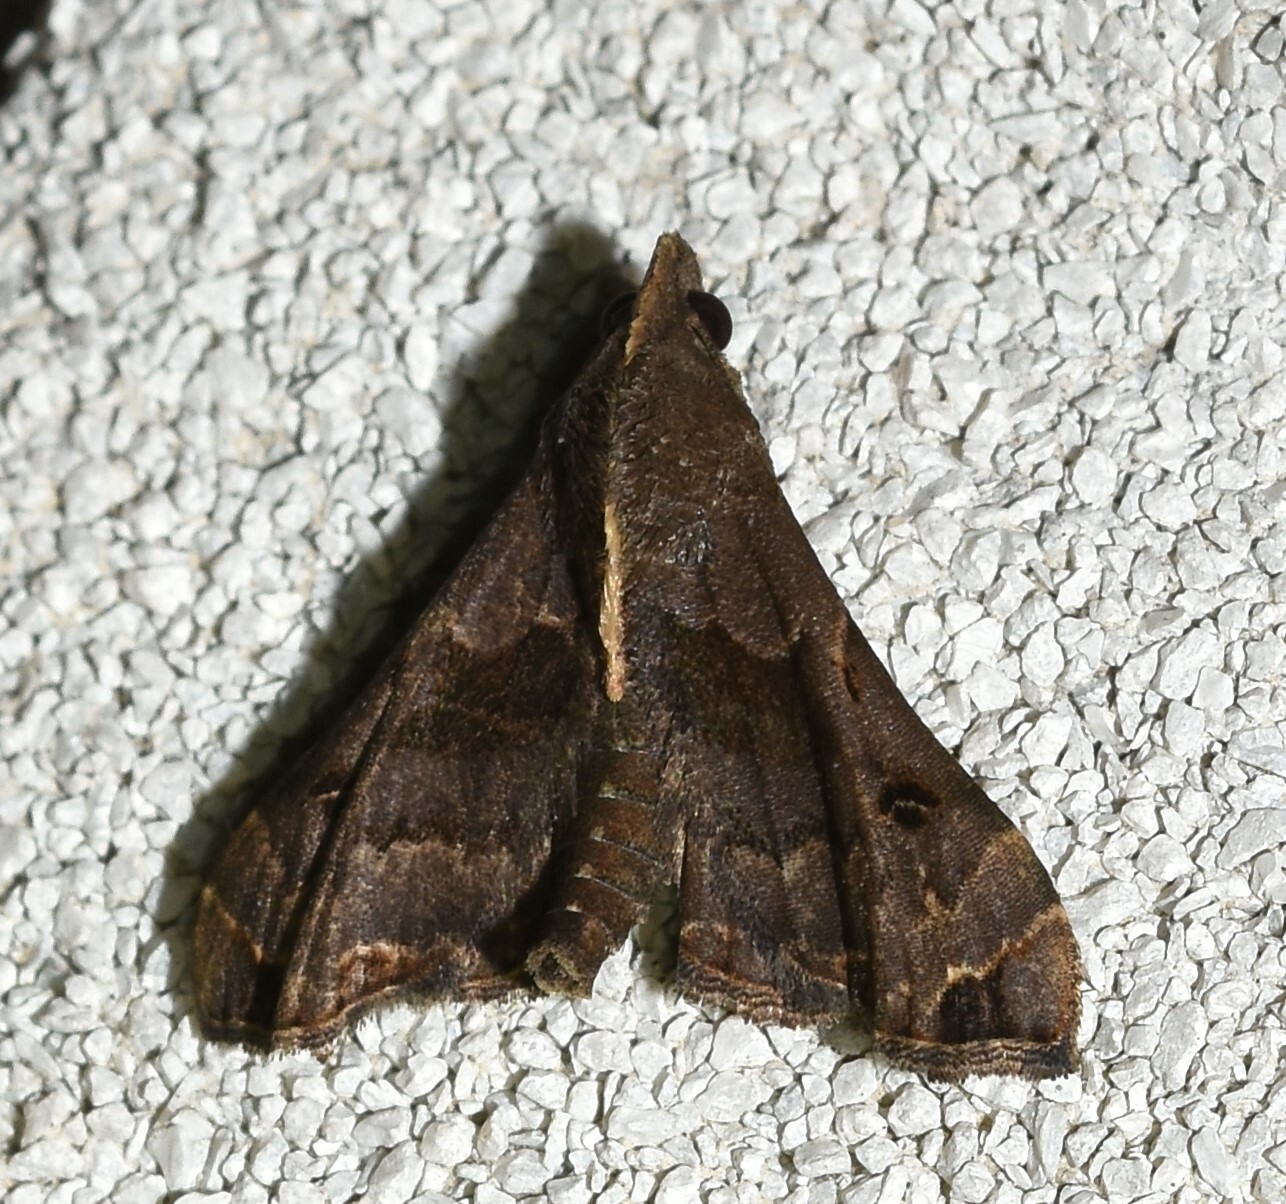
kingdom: Animalia
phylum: Arthropoda
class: Insecta
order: Lepidoptera
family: Erebidae
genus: Palthis
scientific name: Palthis asopialis
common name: Faint-spotted palthis moth
